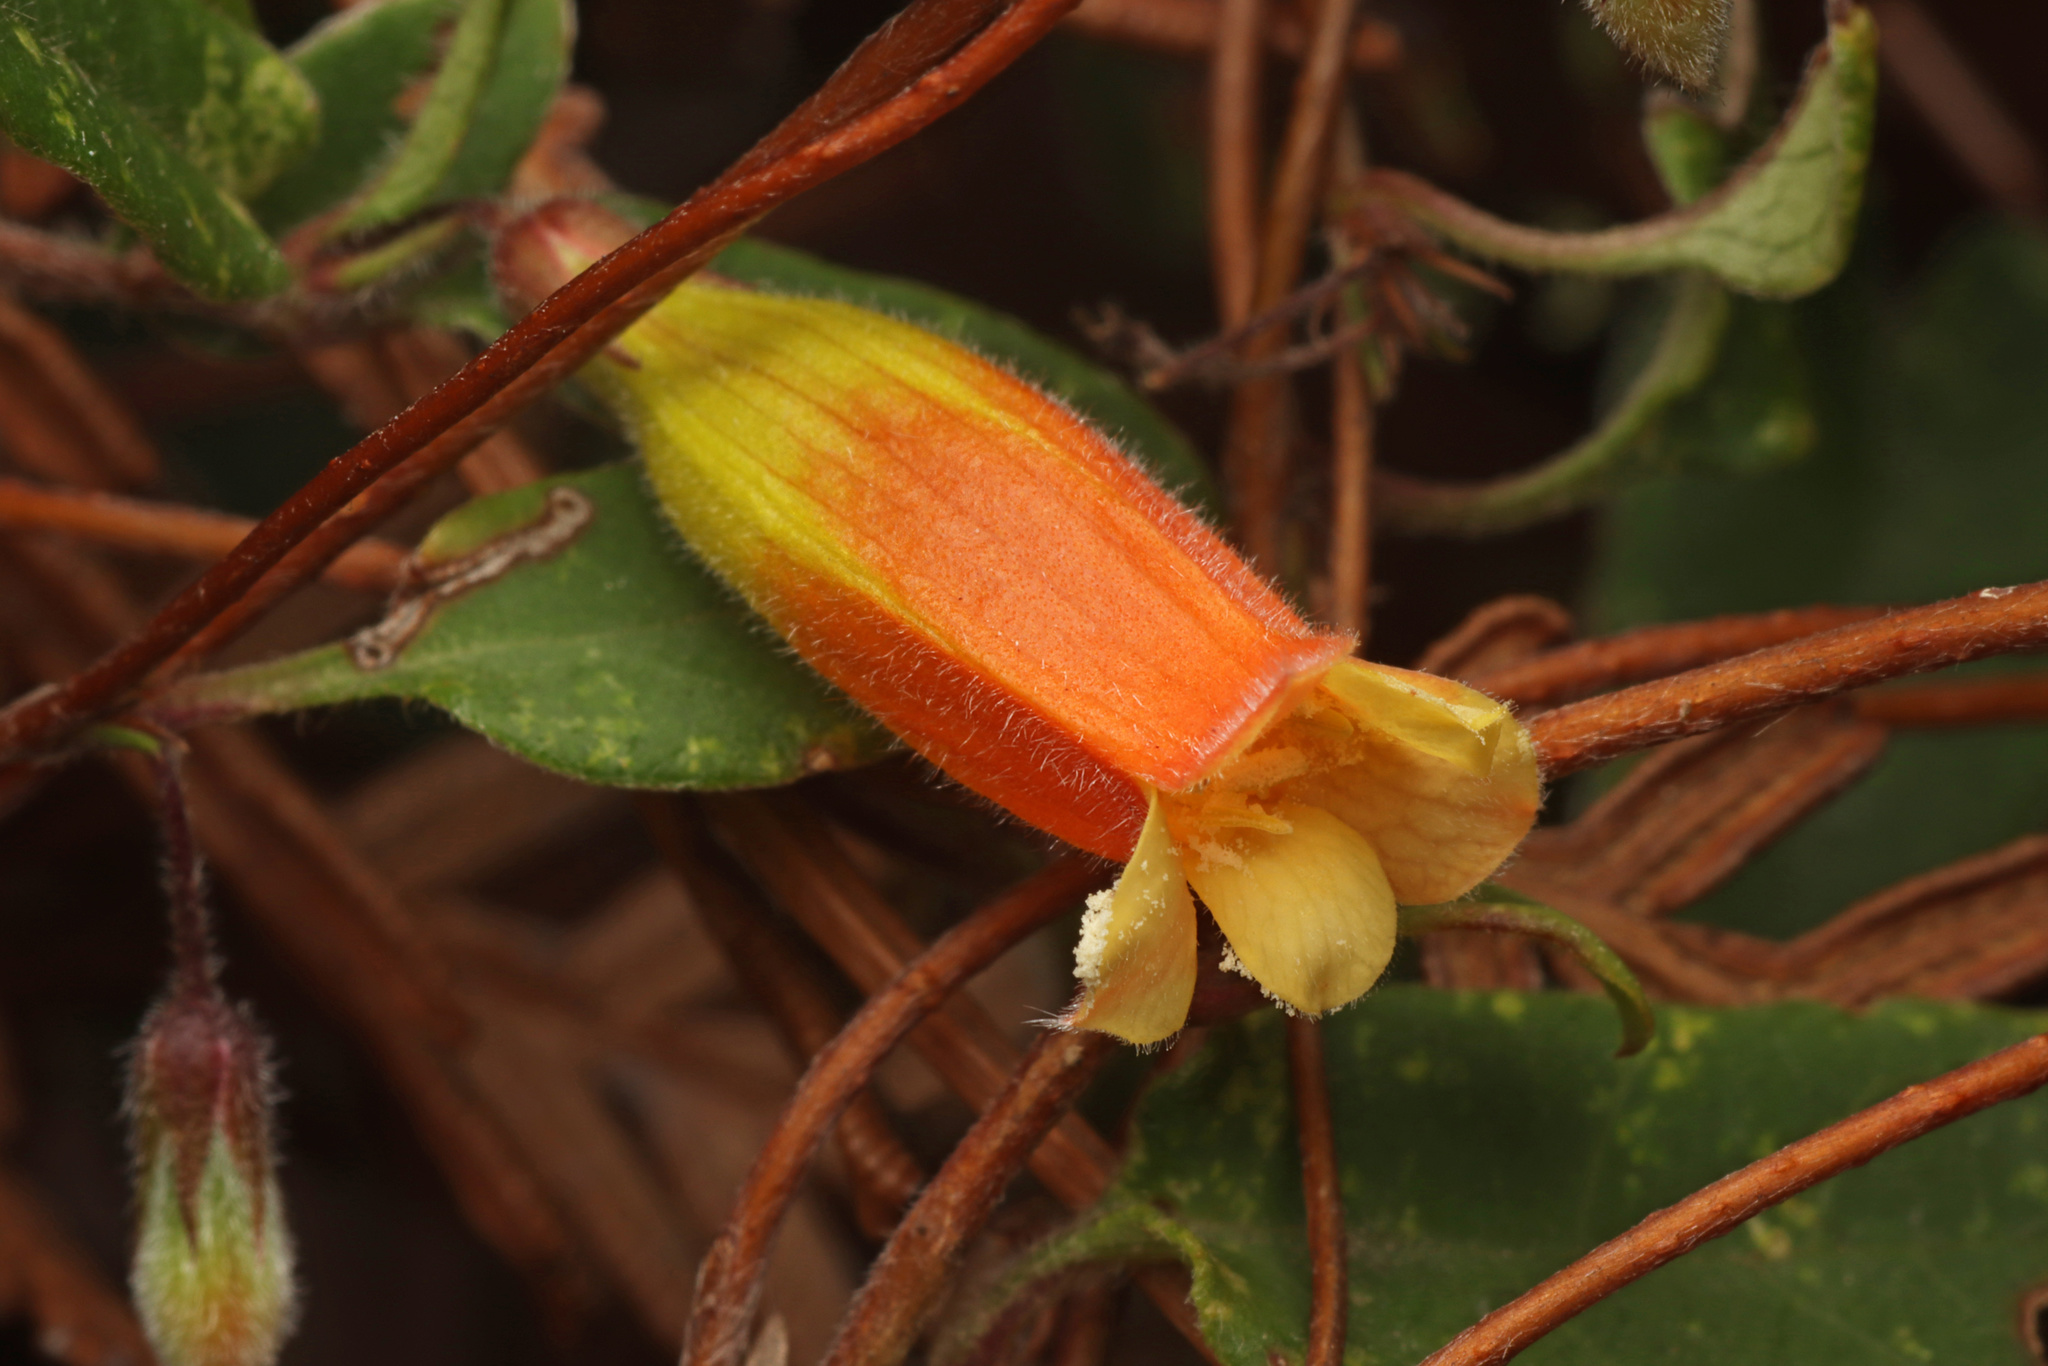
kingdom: Plantae
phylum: Tracheophyta
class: Magnoliopsida
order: Apiales
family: Pittosporaceae
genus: Marianthus
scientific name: Marianthus bignoniaceus
